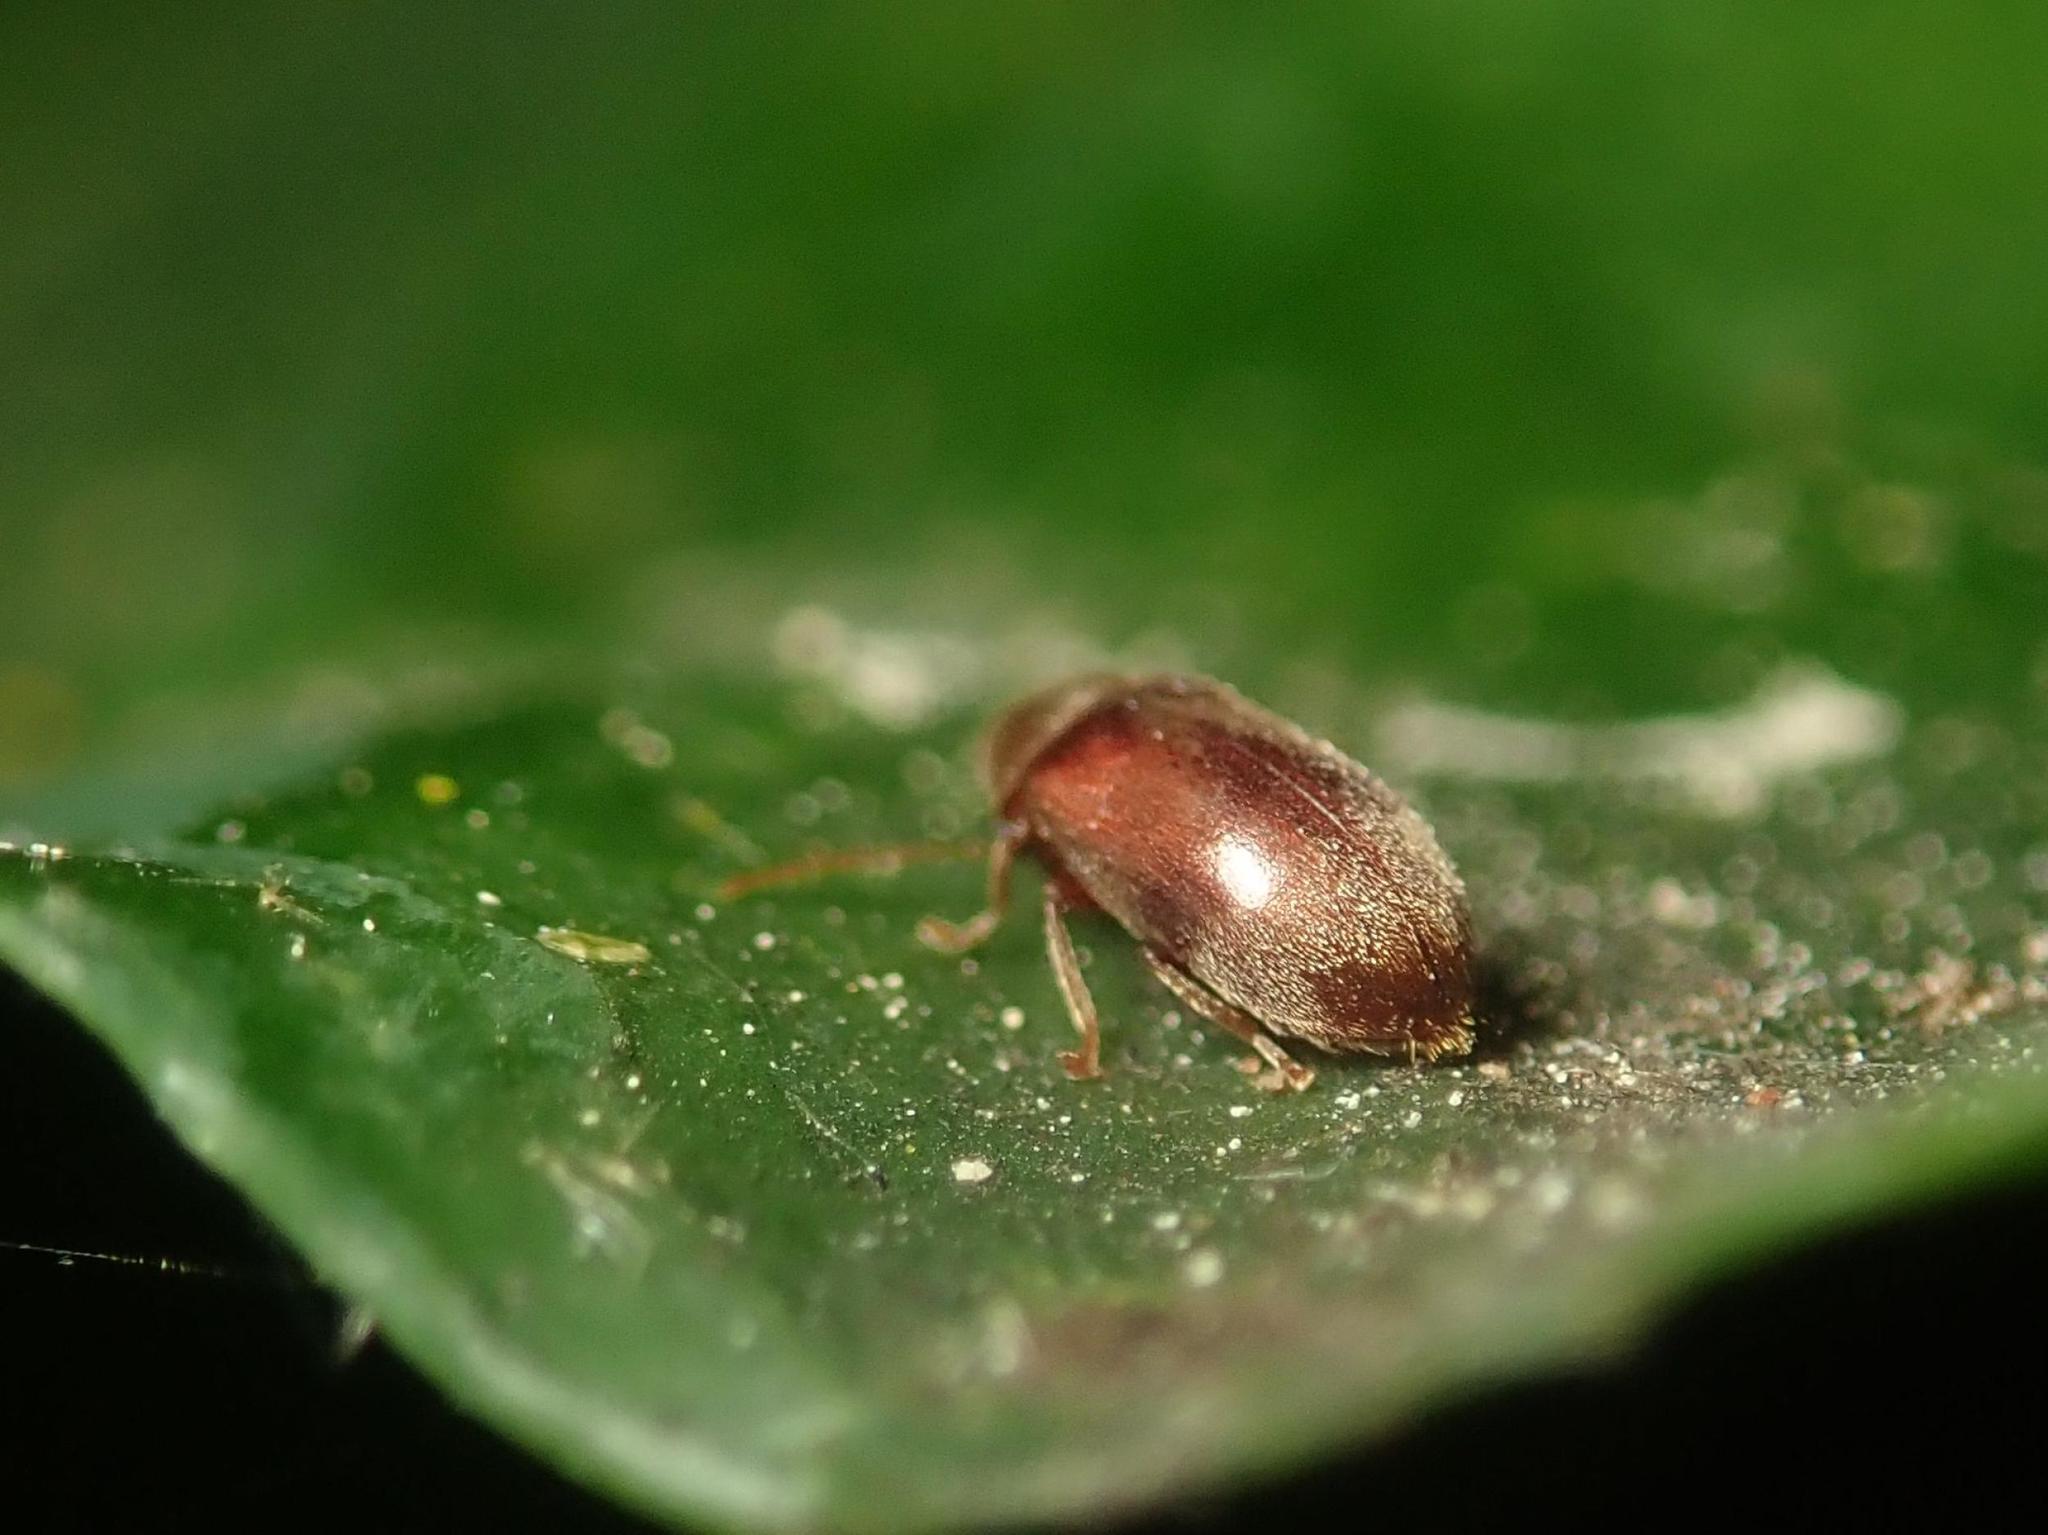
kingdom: Animalia
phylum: Arthropoda
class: Insecta
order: Coleoptera
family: Ptinidae
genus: Ochina
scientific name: Ochina ptinoides
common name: Ivy boring beetle
